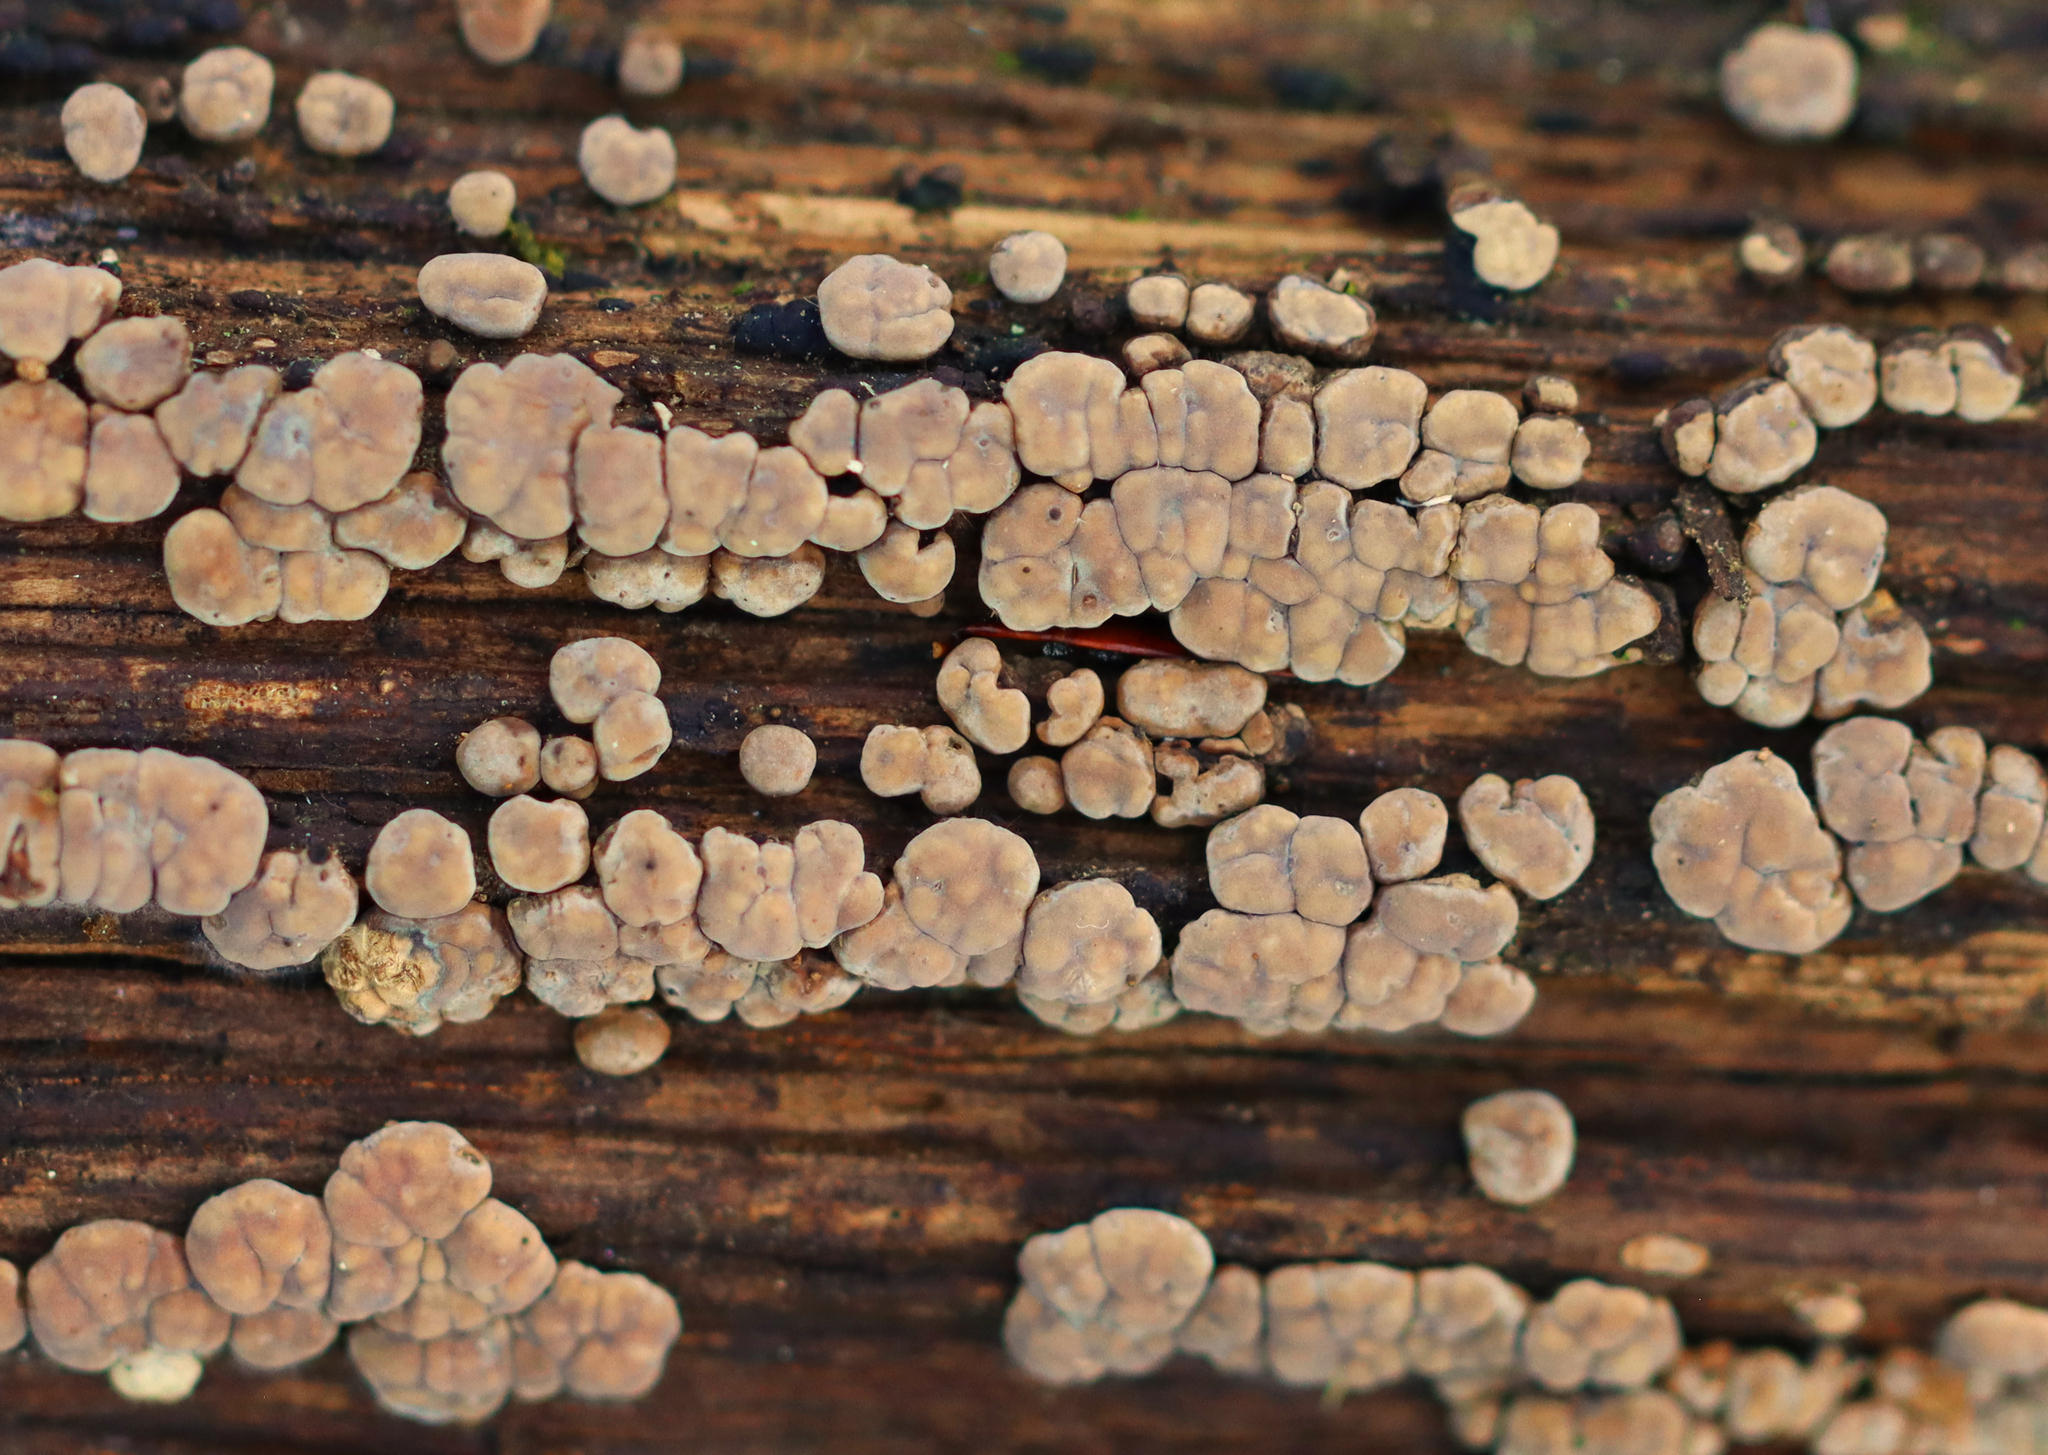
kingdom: Fungi
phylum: Basidiomycota
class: Agaricomycetes
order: Russulales
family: Stereaceae
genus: Xylobolus
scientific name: Xylobolus frustulatus
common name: Ceramic parchment
